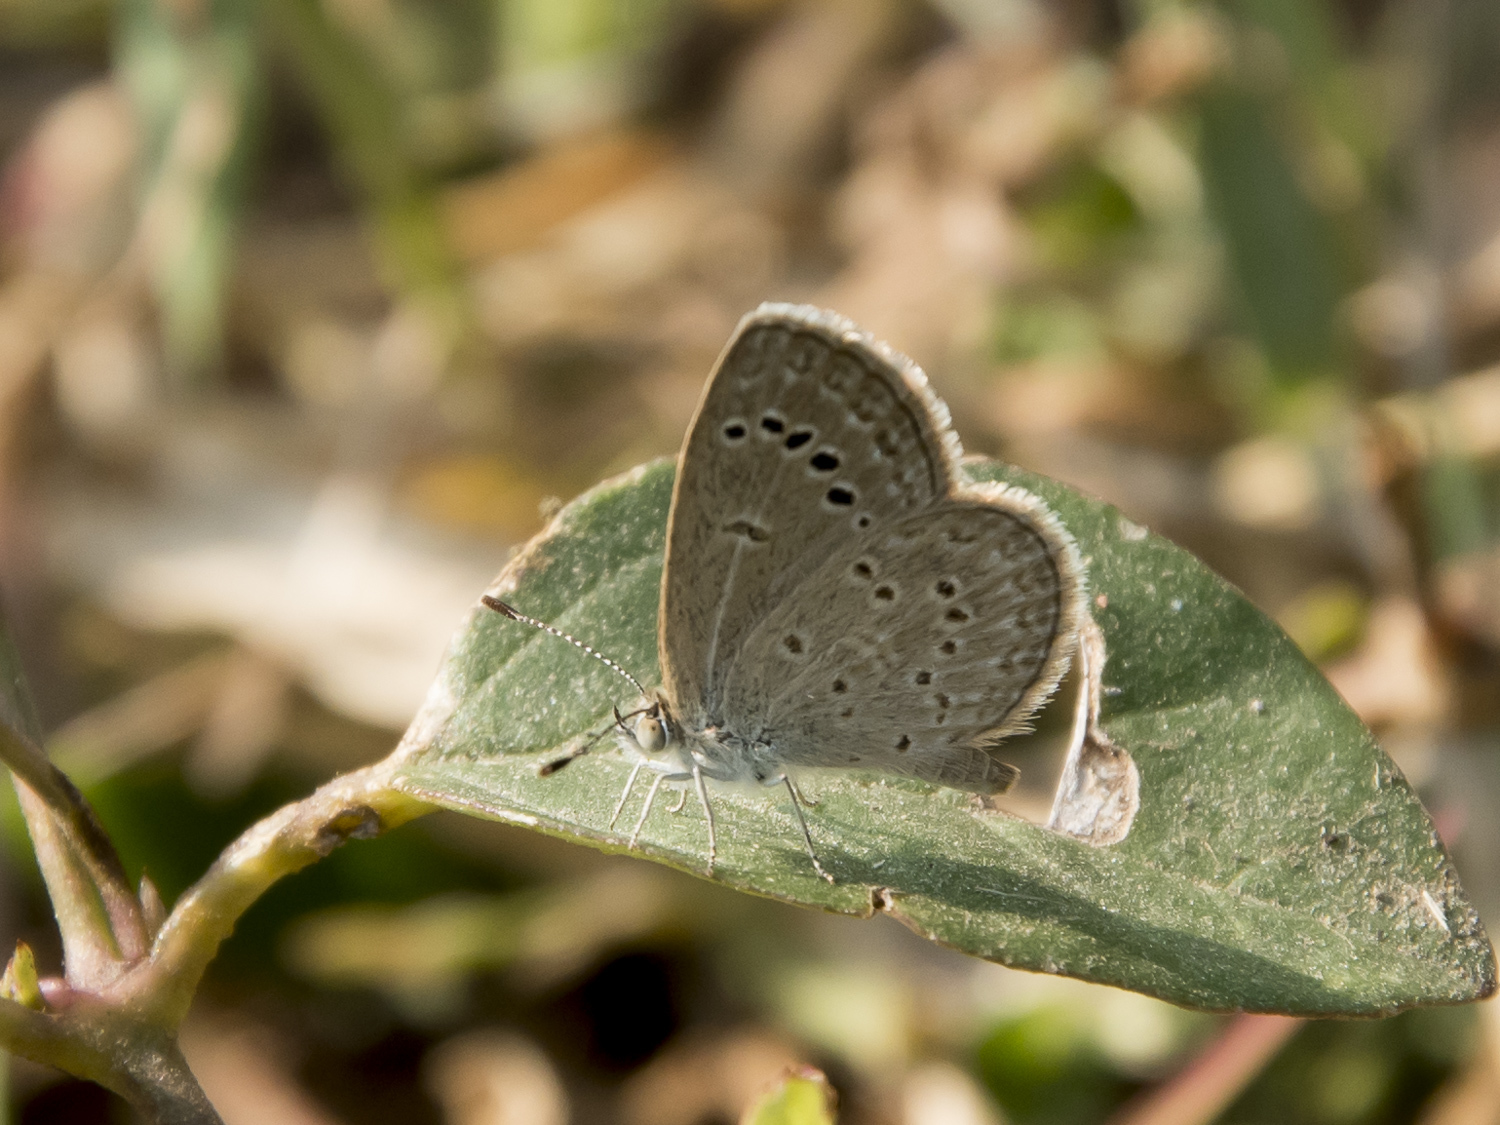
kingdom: Animalia
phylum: Arthropoda
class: Insecta
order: Lepidoptera
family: Lycaenidae
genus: Zizina
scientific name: Zizina otis
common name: Lesser grass blue
